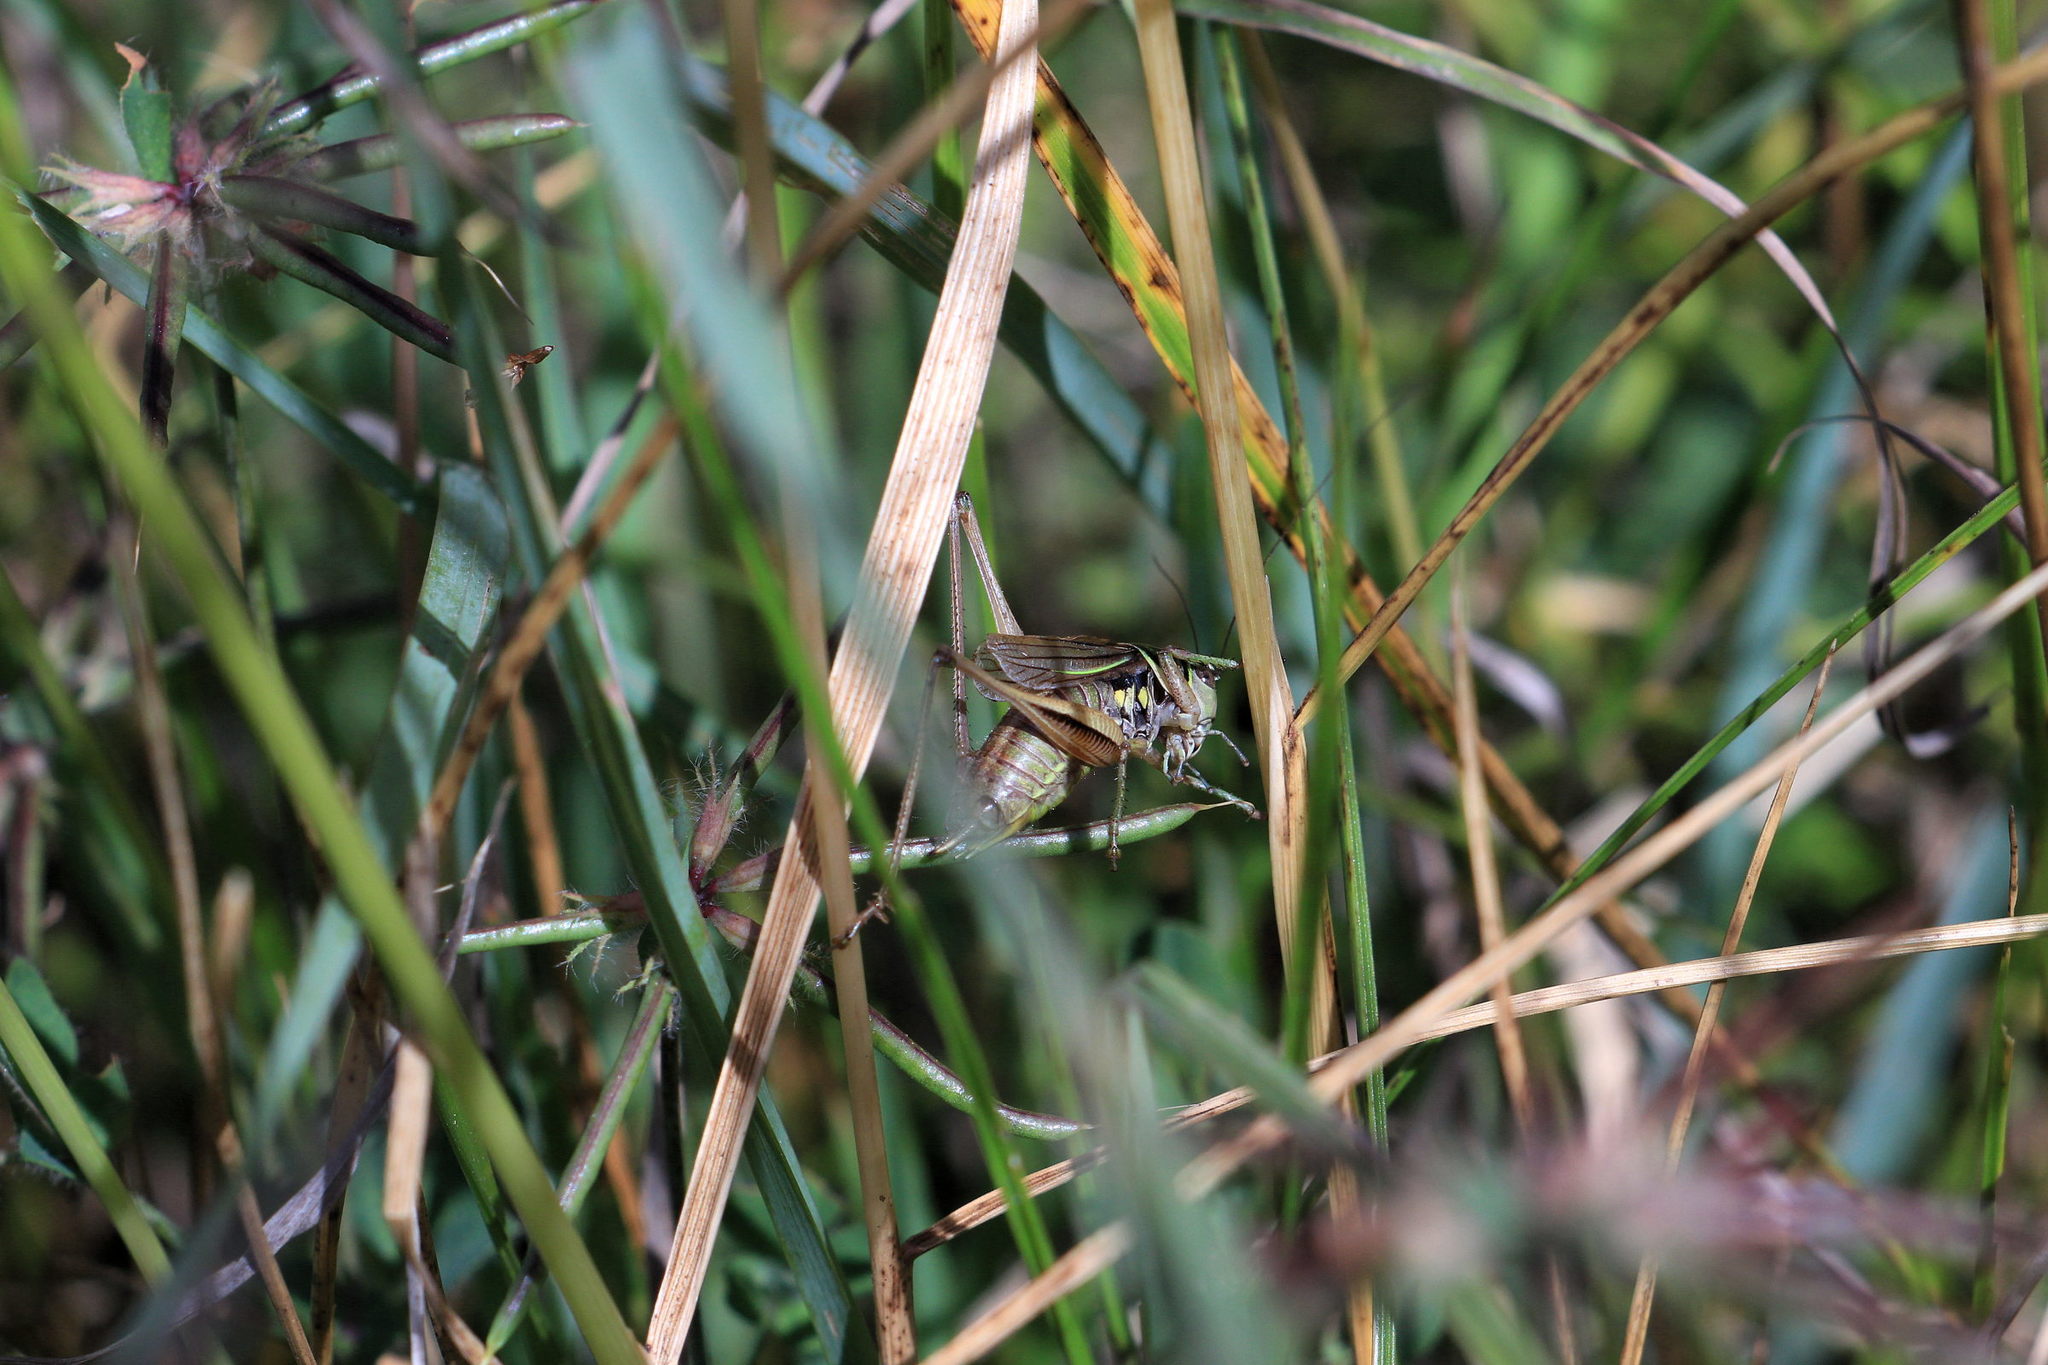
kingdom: Animalia
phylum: Arthropoda
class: Insecta
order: Orthoptera
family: Tettigoniidae
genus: Roeseliana
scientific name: Roeseliana roeselii
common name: Roesel's bush cricket
